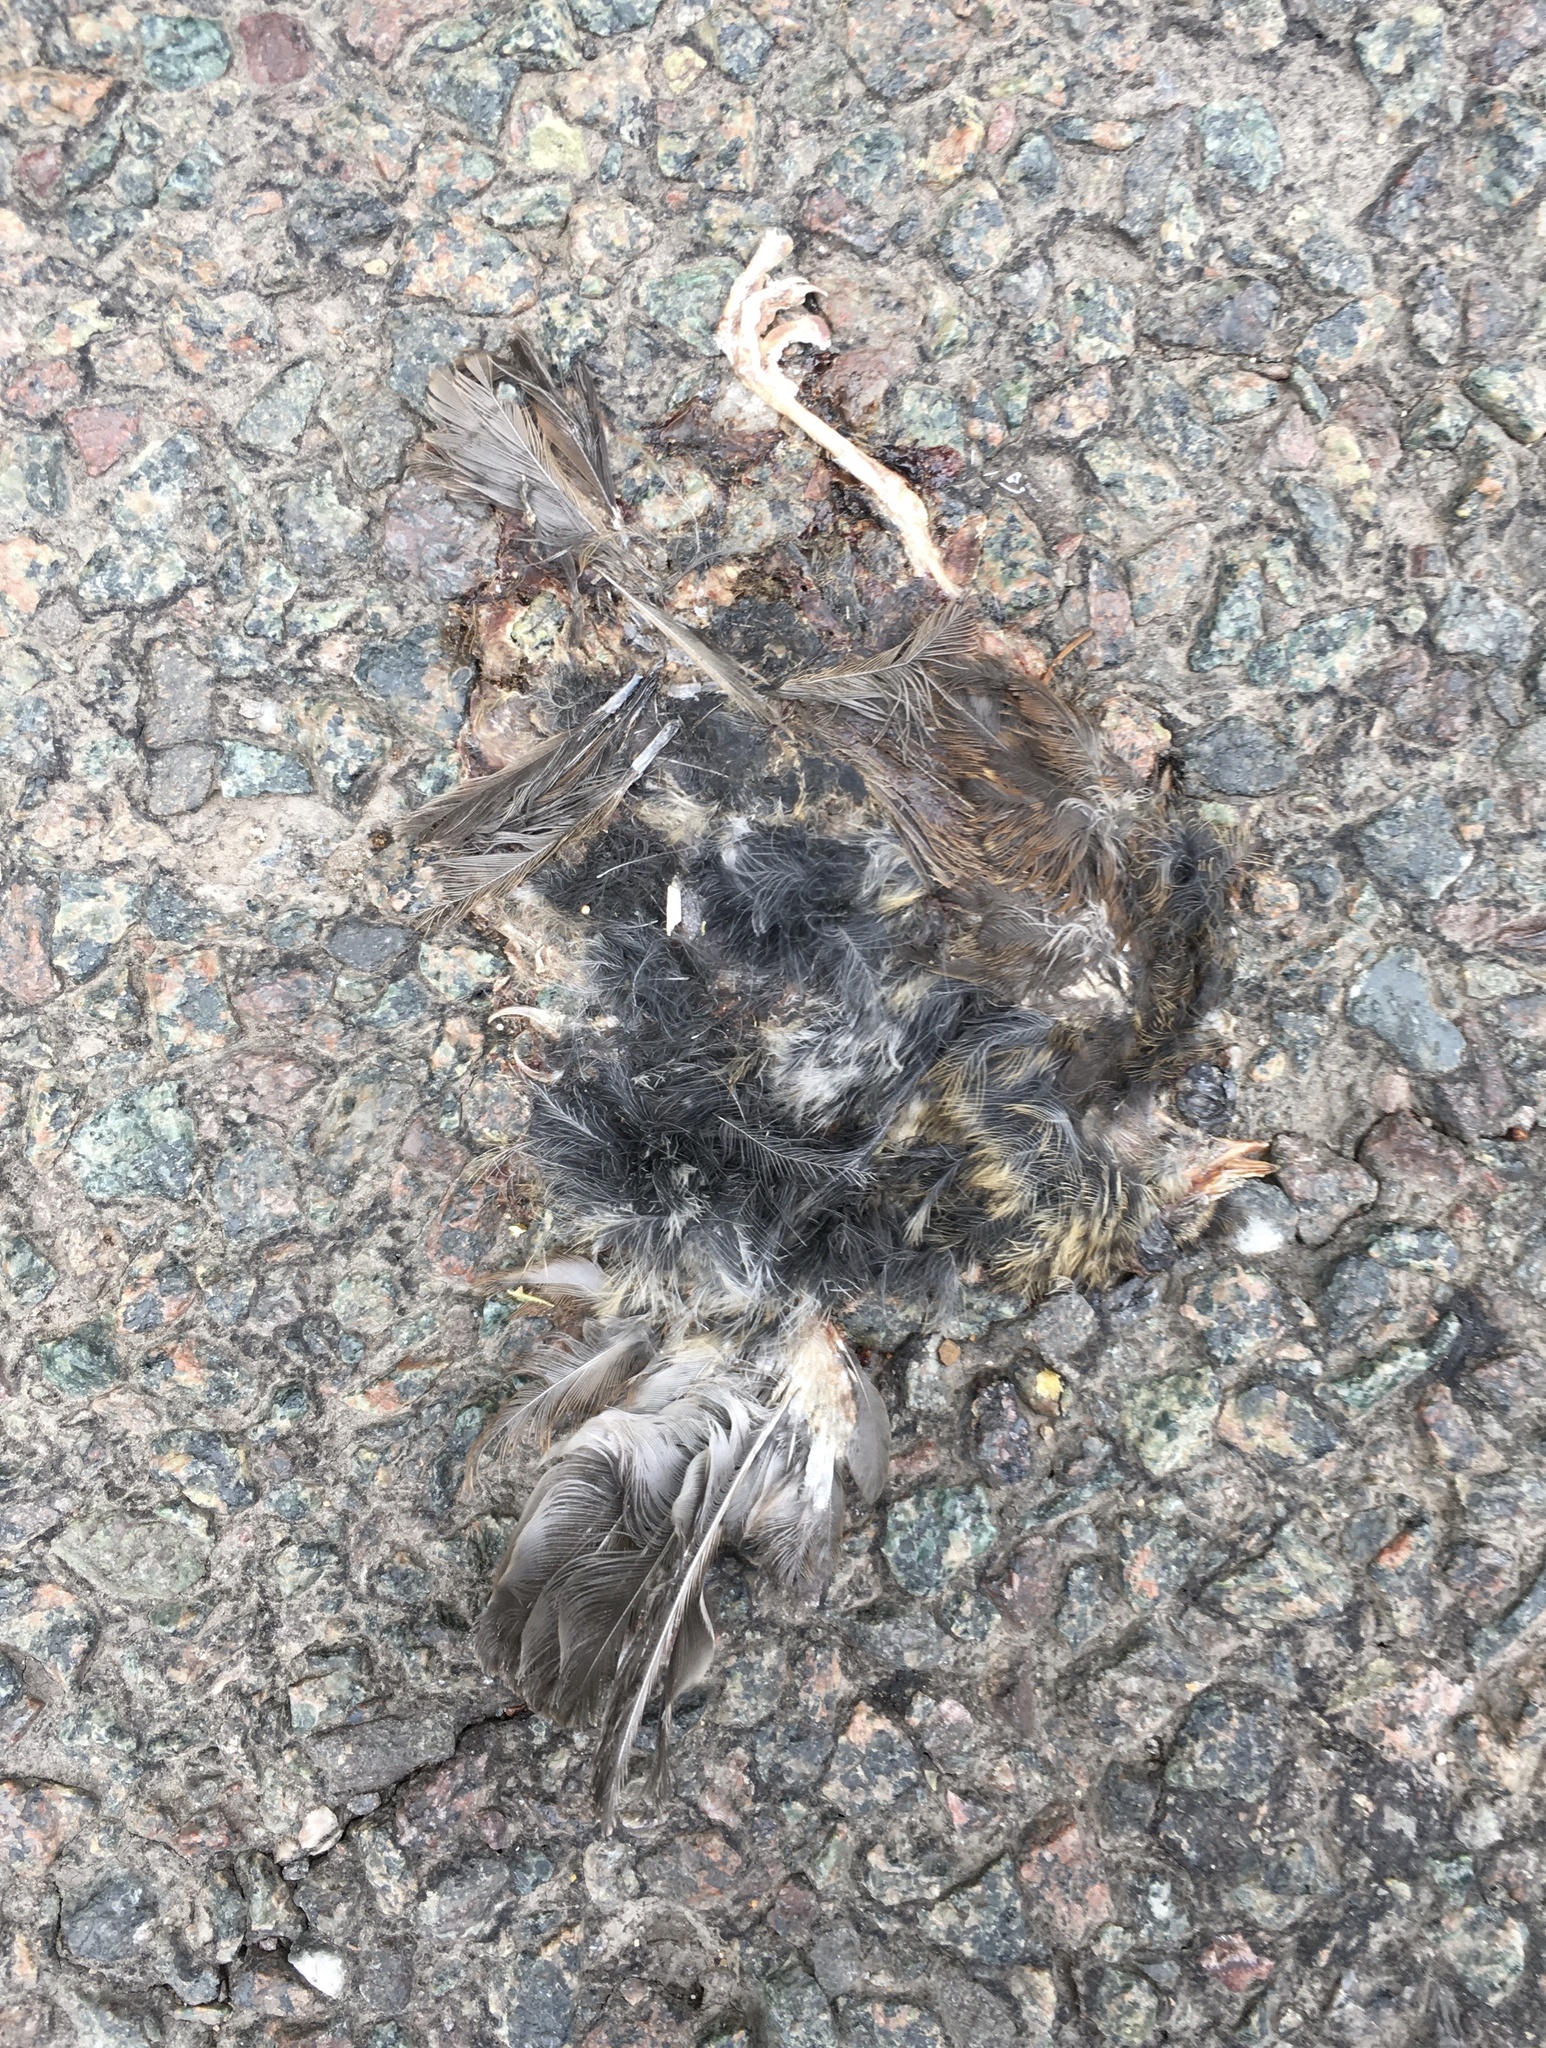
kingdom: Animalia
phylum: Chordata
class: Aves
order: Passeriformes
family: Prunellidae
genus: Prunella
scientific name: Prunella modularis
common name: Dunnock
